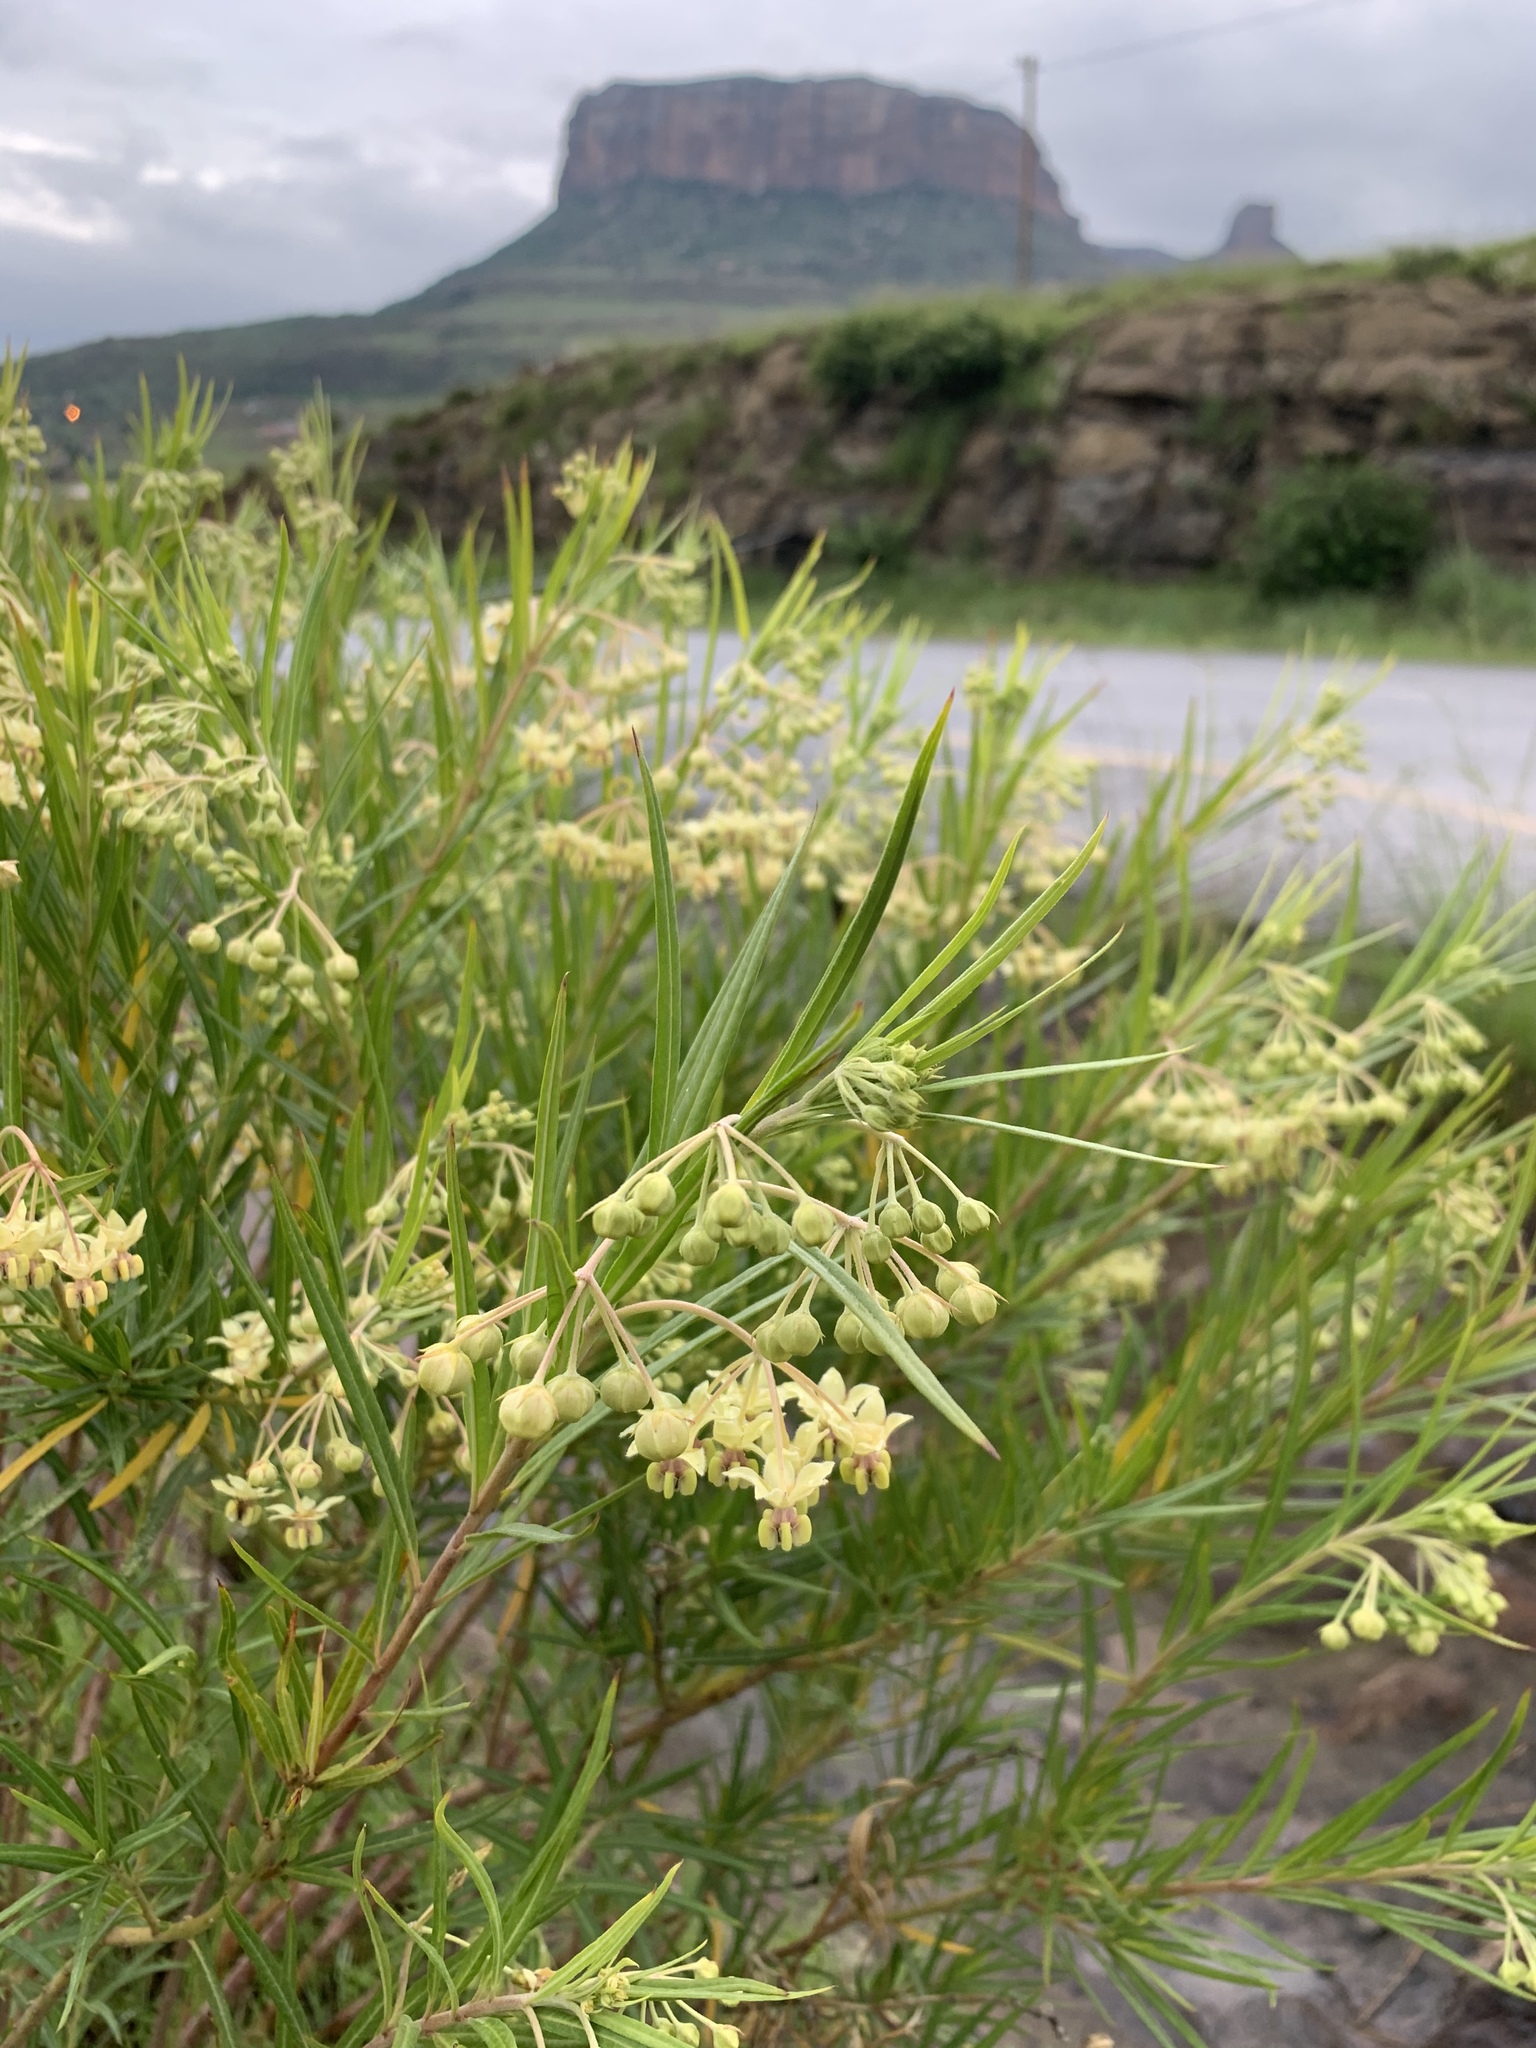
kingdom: Plantae
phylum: Tracheophyta
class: Magnoliopsida
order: Gentianales
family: Apocynaceae
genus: Gomphocarpus
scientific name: Gomphocarpus fruticosus
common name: Milkweed
